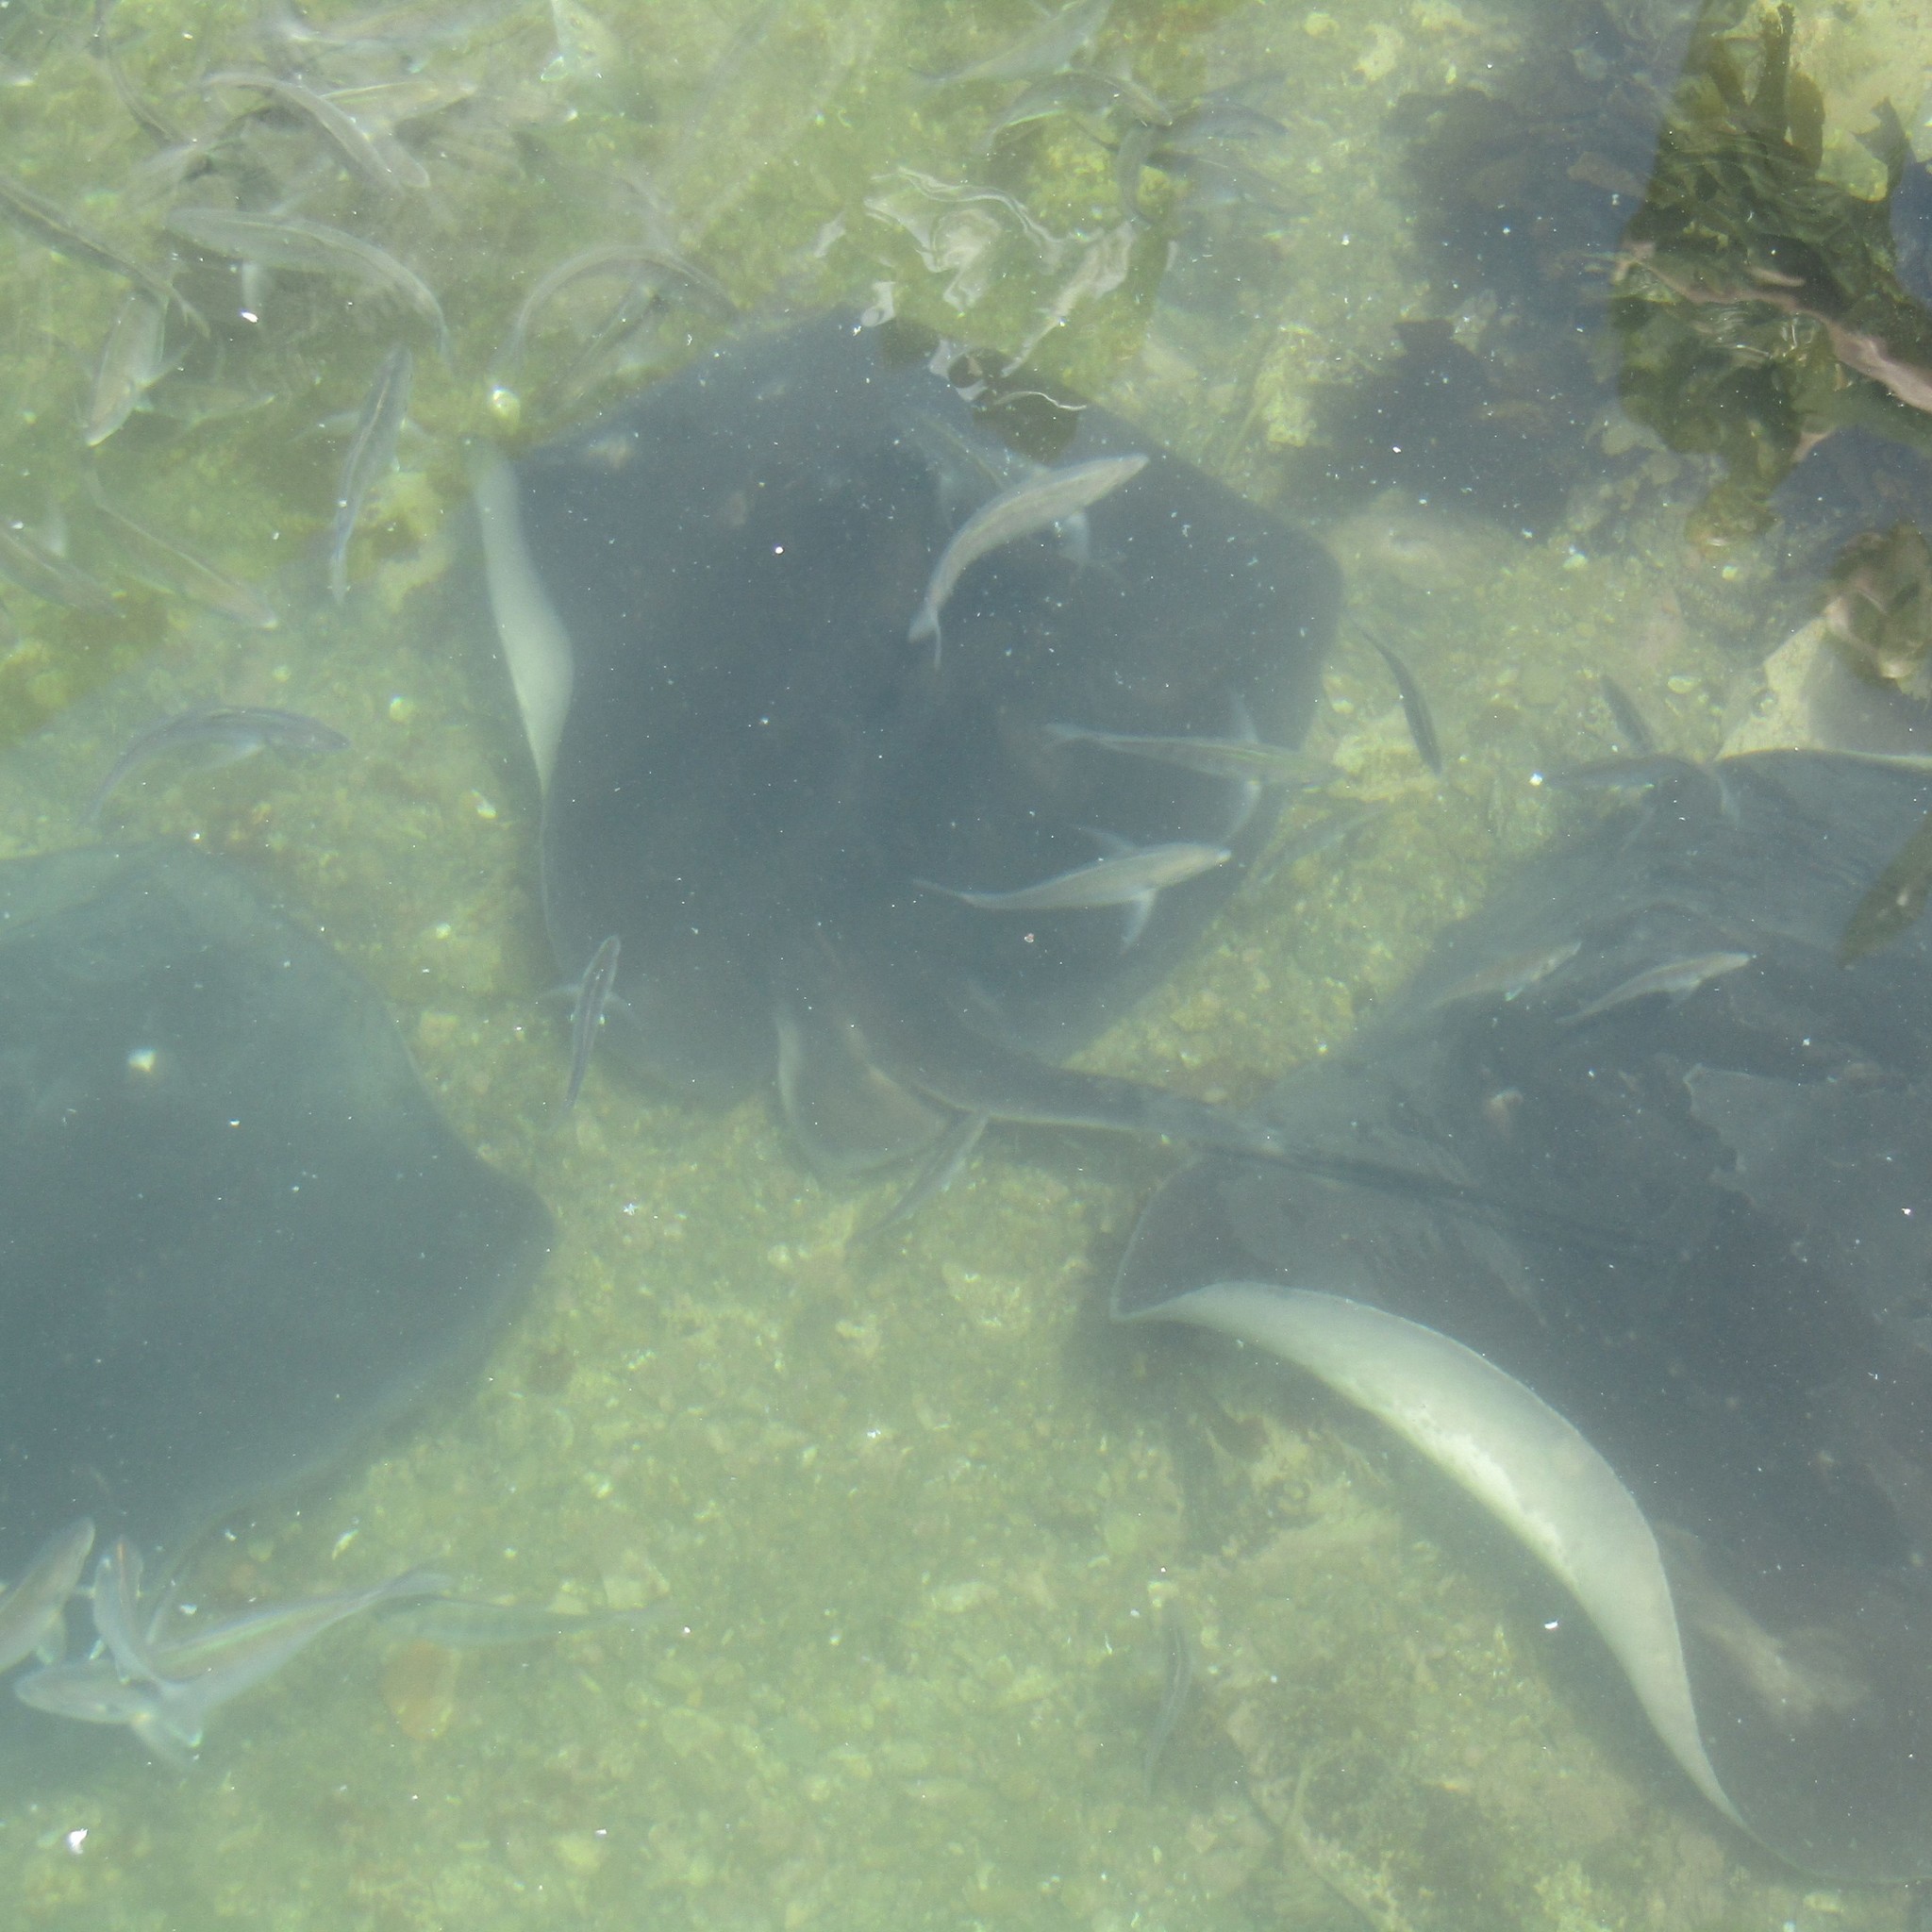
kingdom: Animalia
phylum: Chordata
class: Elasmobranchii
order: Myliobatiformes
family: Dasyatidae
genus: Bathytoshia
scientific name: Bathytoshia brevicaudata
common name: Short-tail stingray
